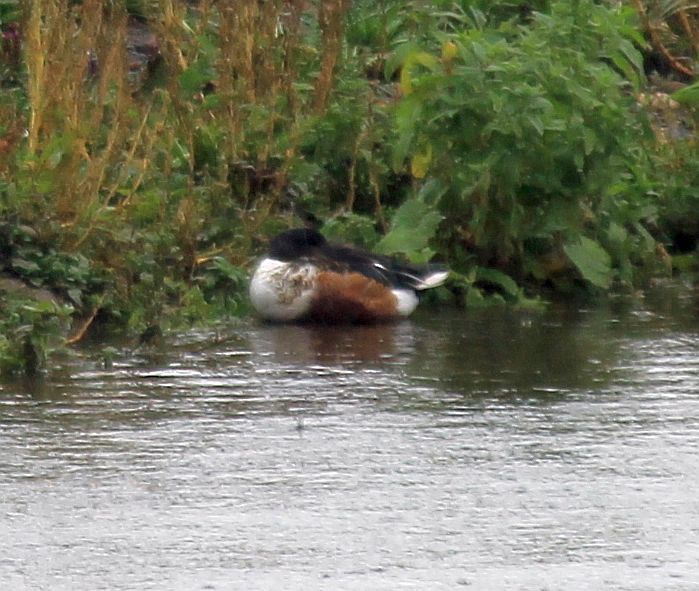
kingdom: Animalia
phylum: Chordata
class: Aves
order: Anseriformes
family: Anatidae
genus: Spatula
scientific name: Spatula clypeata
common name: Northern shoveler
